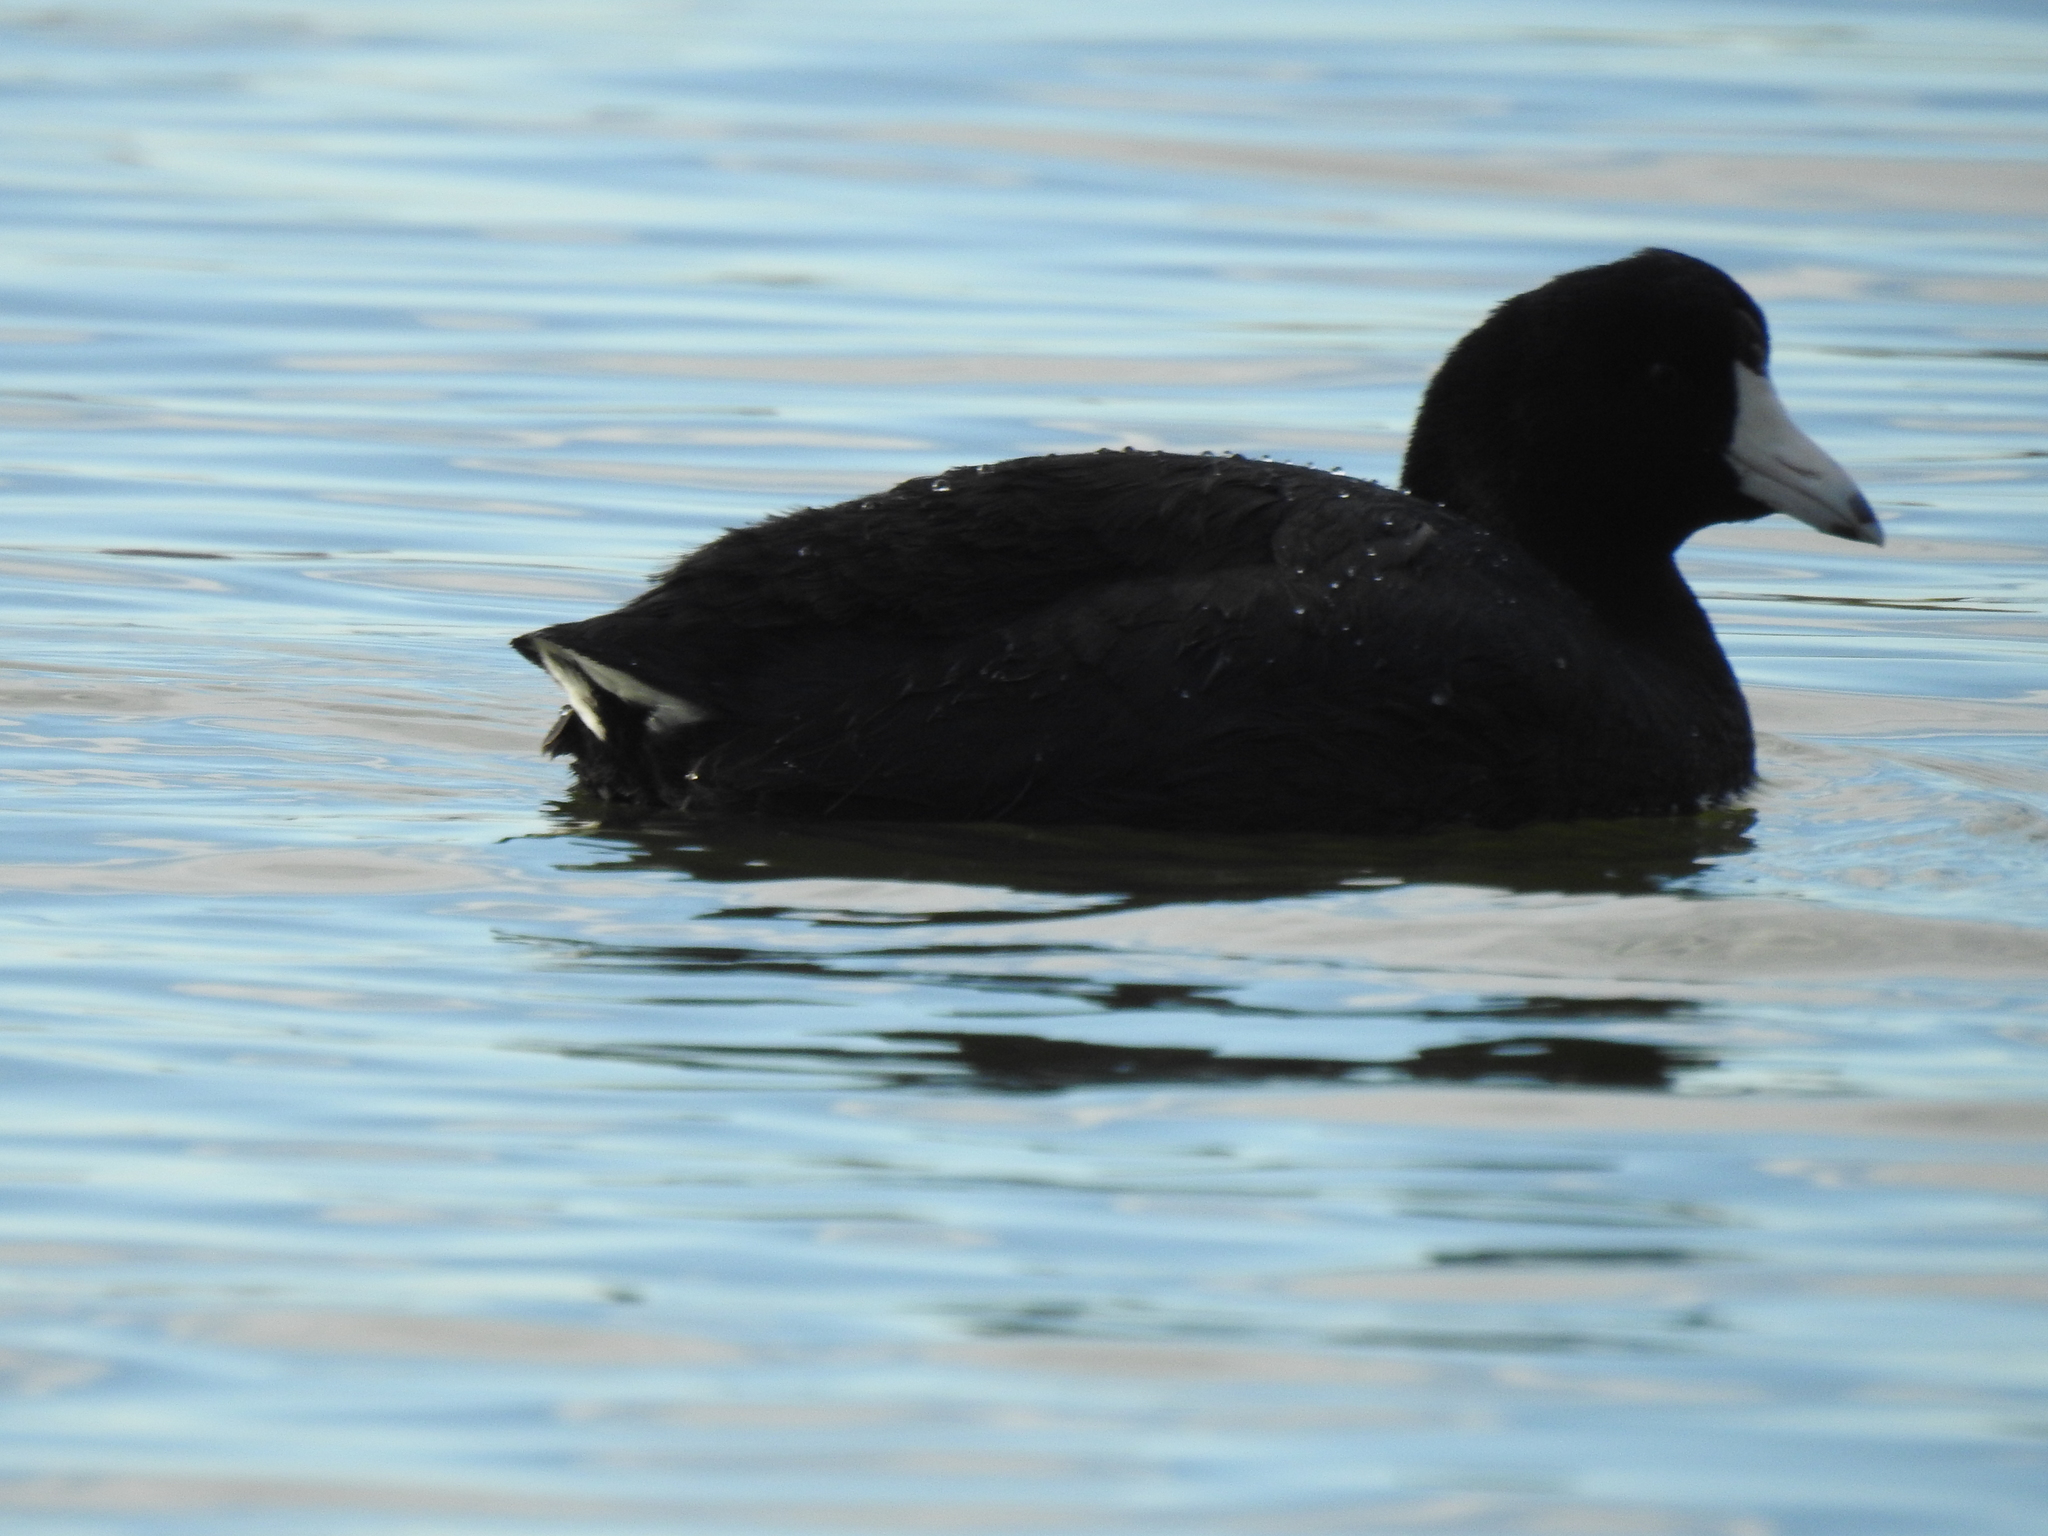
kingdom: Animalia
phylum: Chordata
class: Aves
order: Gruiformes
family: Rallidae
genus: Fulica
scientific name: Fulica americana
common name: American coot
